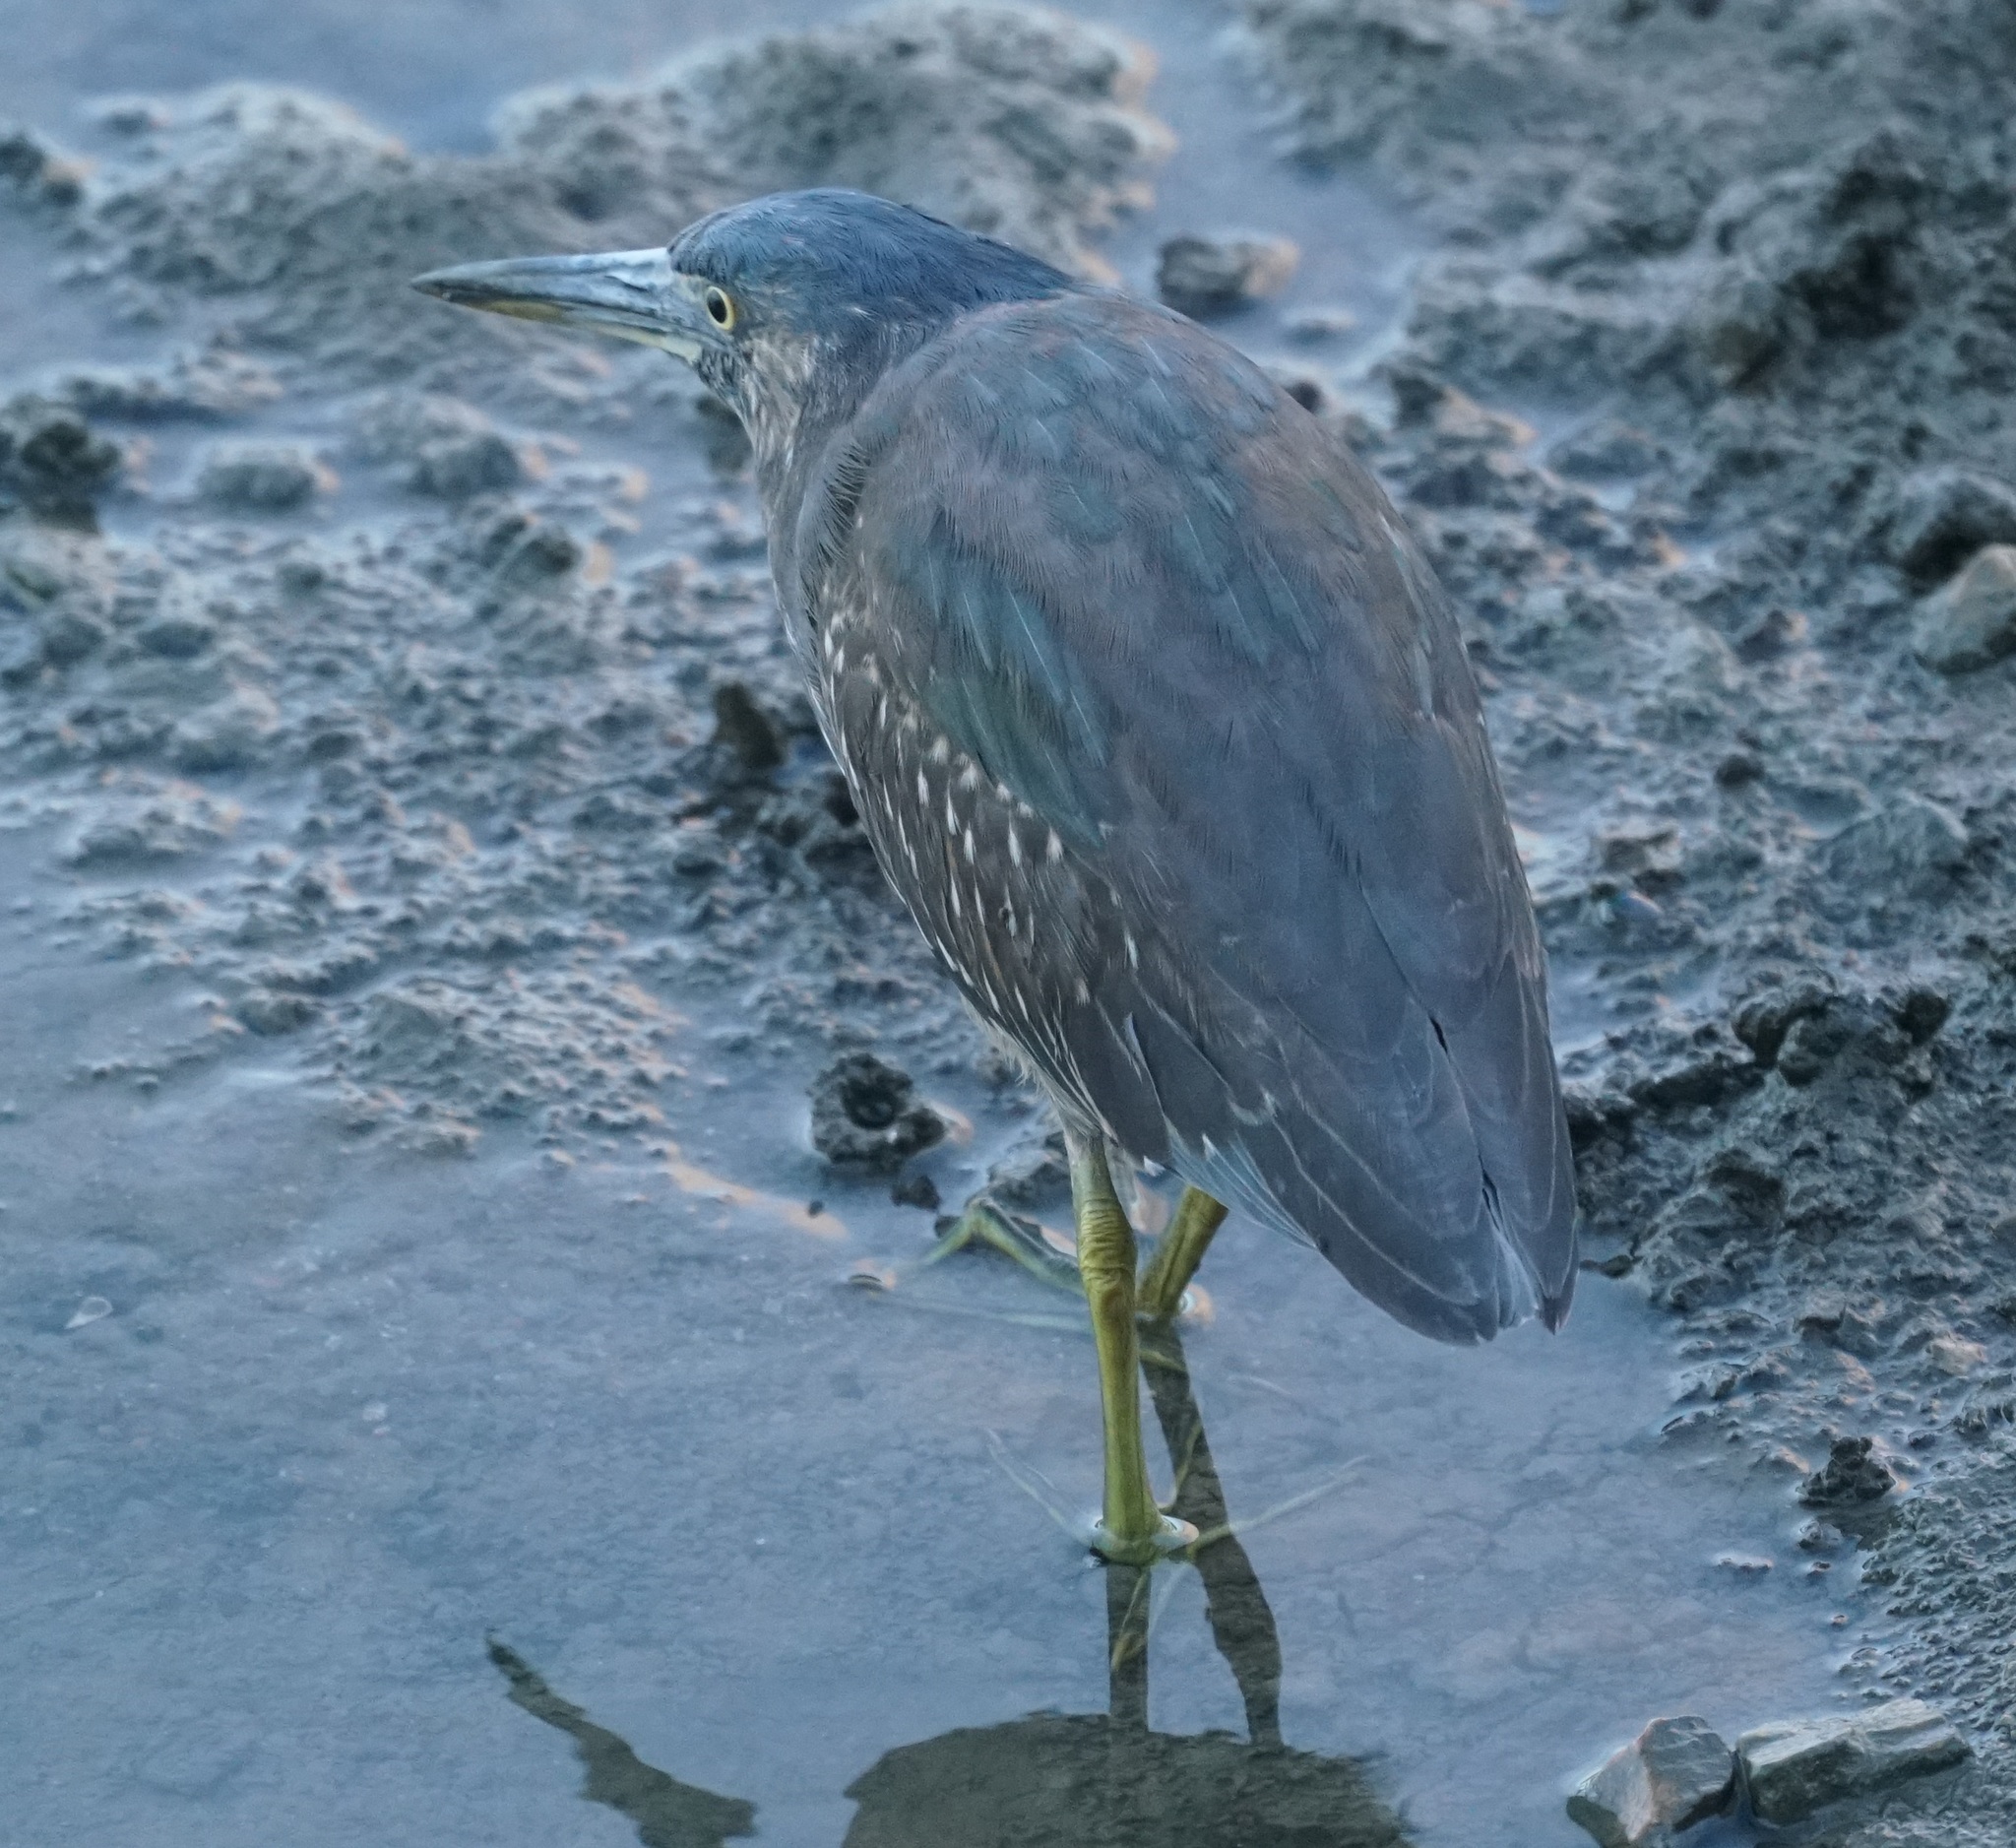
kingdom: Animalia
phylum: Chordata
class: Aves
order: Pelecaniformes
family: Ardeidae
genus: Butorides
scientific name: Butorides striata
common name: Striated heron
